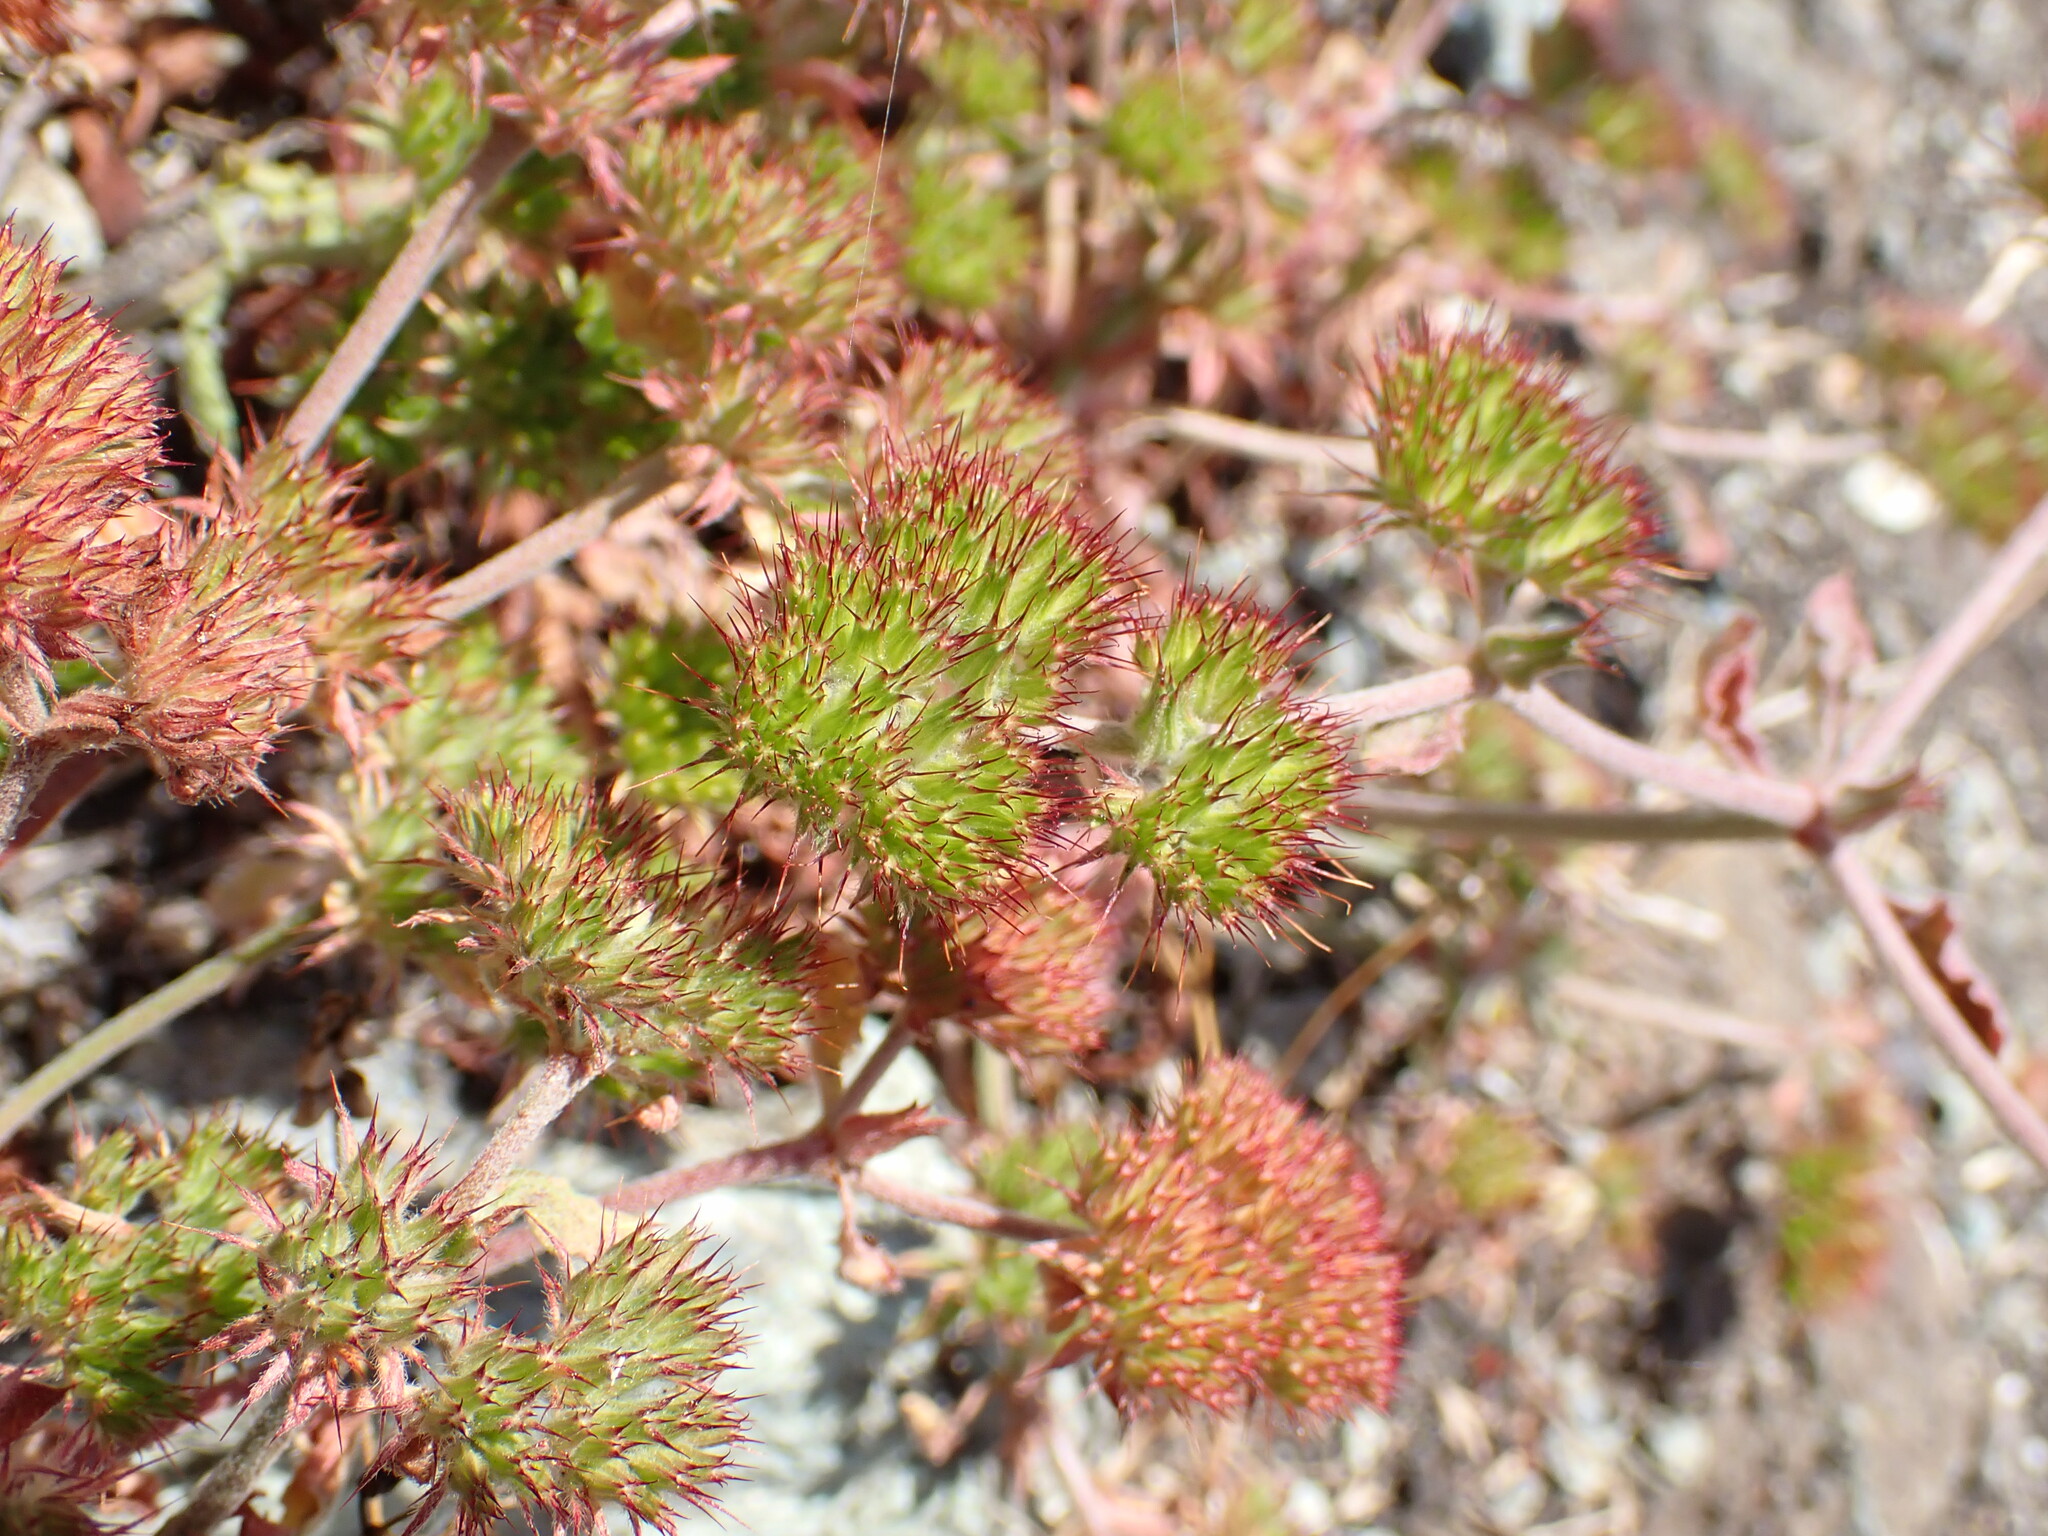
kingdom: Plantae
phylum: Tracheophyta
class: Magnoliopsida
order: Caryophyllales
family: Polygonaceae
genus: Chorizanthe
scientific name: Chorizanthe palmeri
